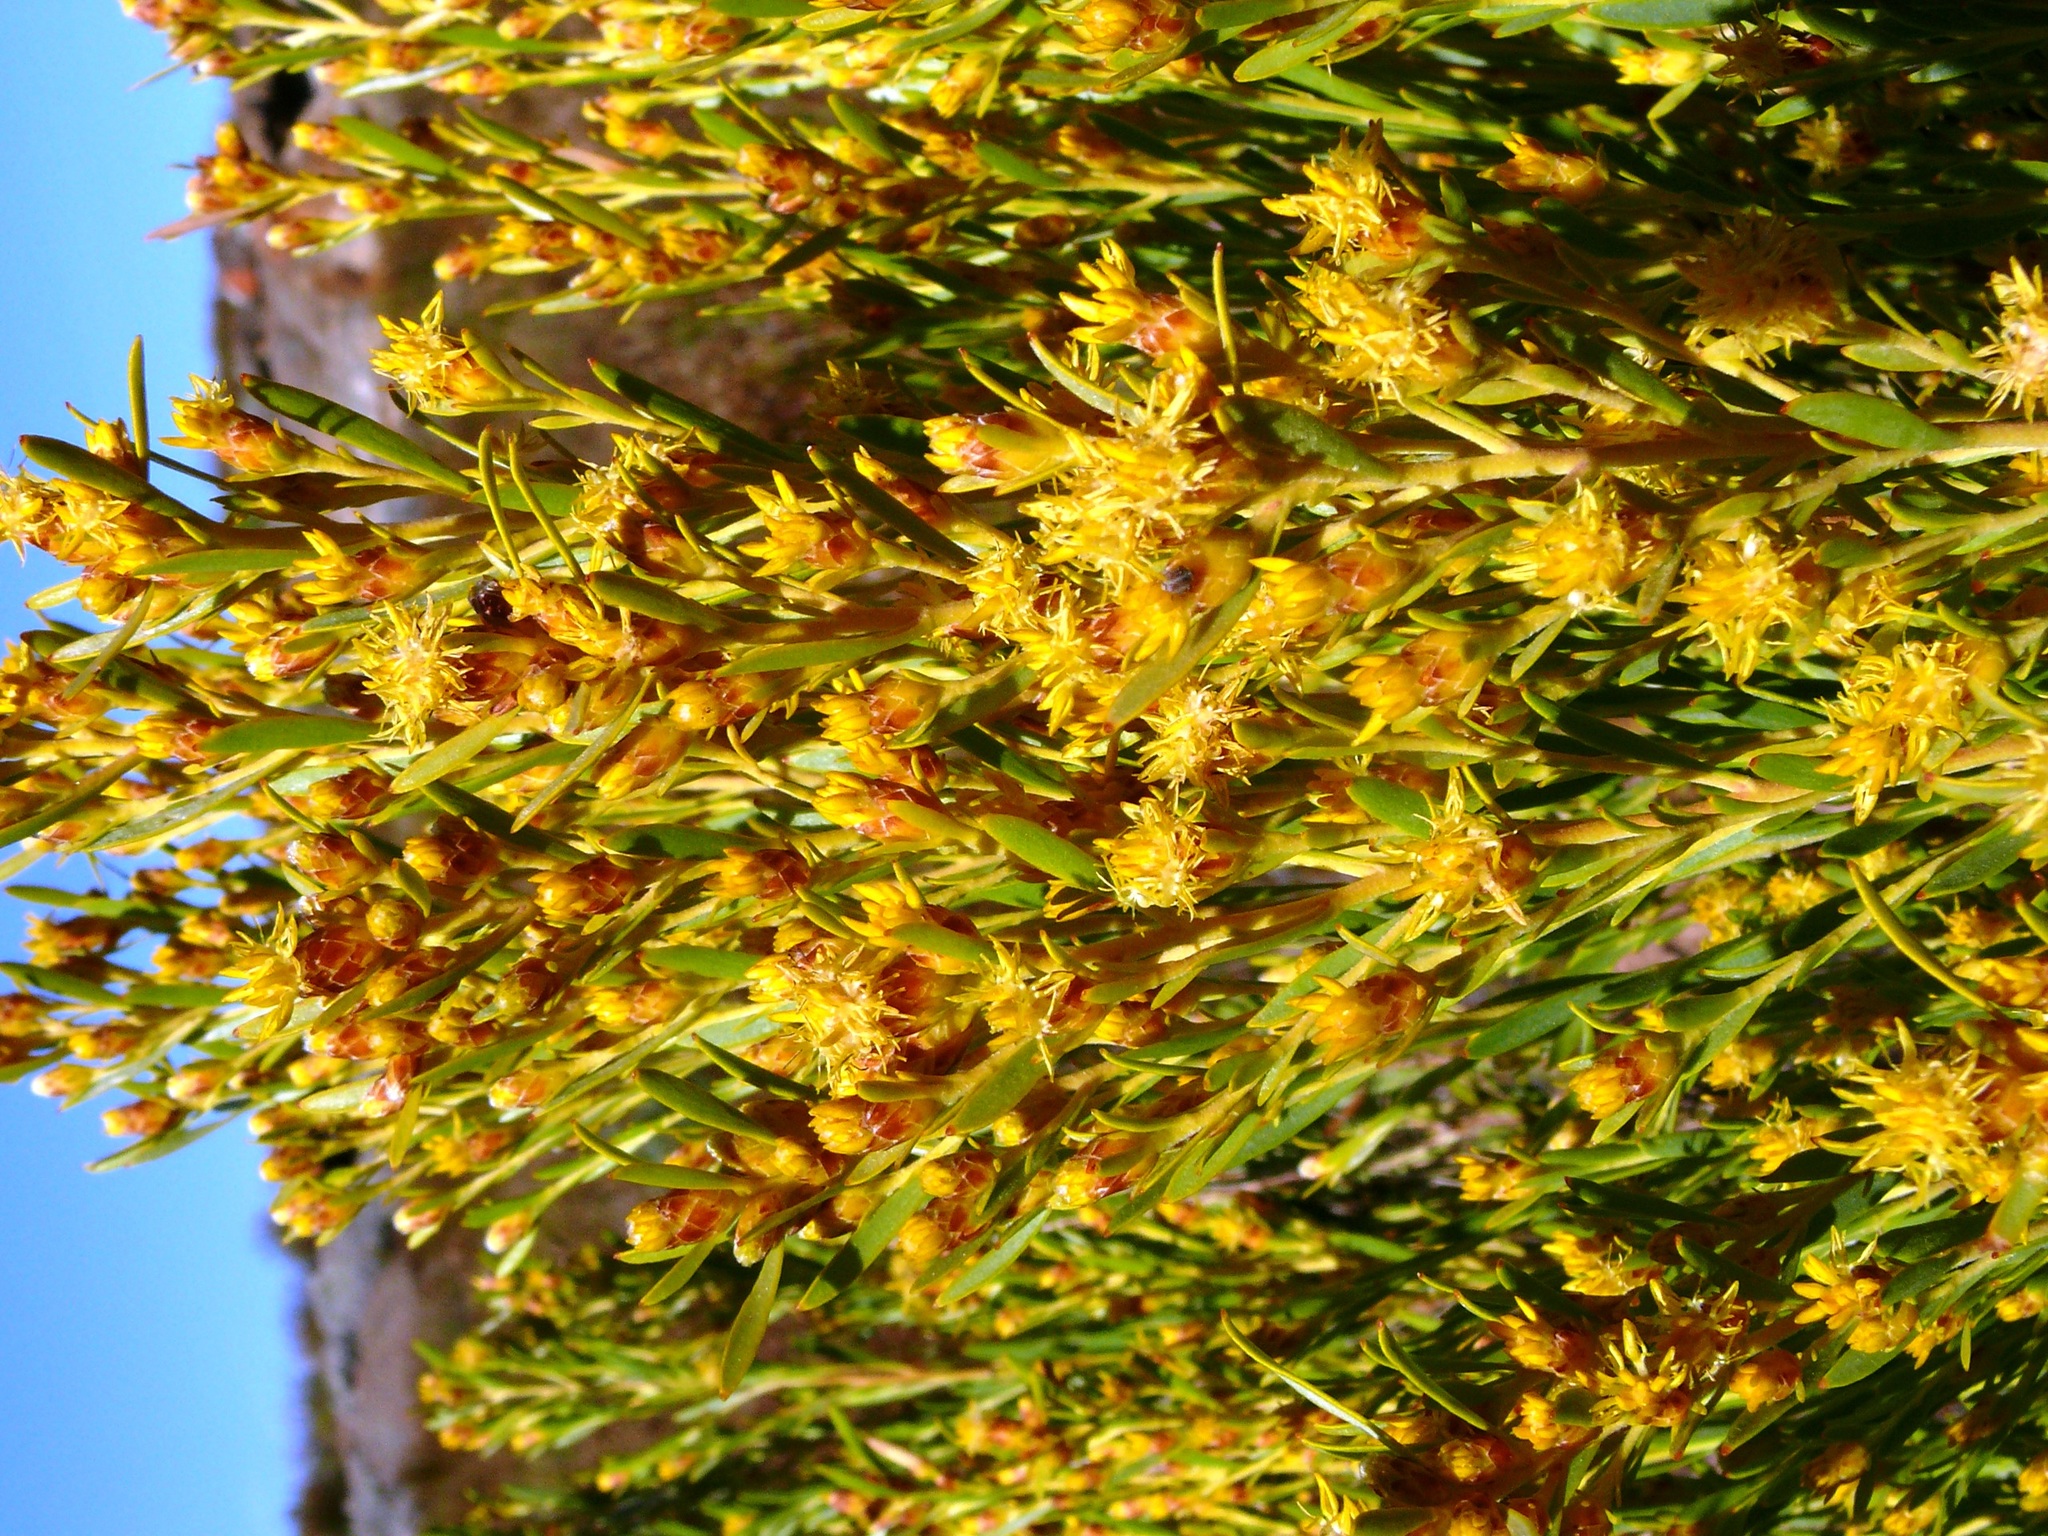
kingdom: Plantae
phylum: Tracheophyta
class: Magnoliopsida
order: Proteales
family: Proteaceae
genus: Leucadendron
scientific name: Leucadendron rubrum
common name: Spinning top
